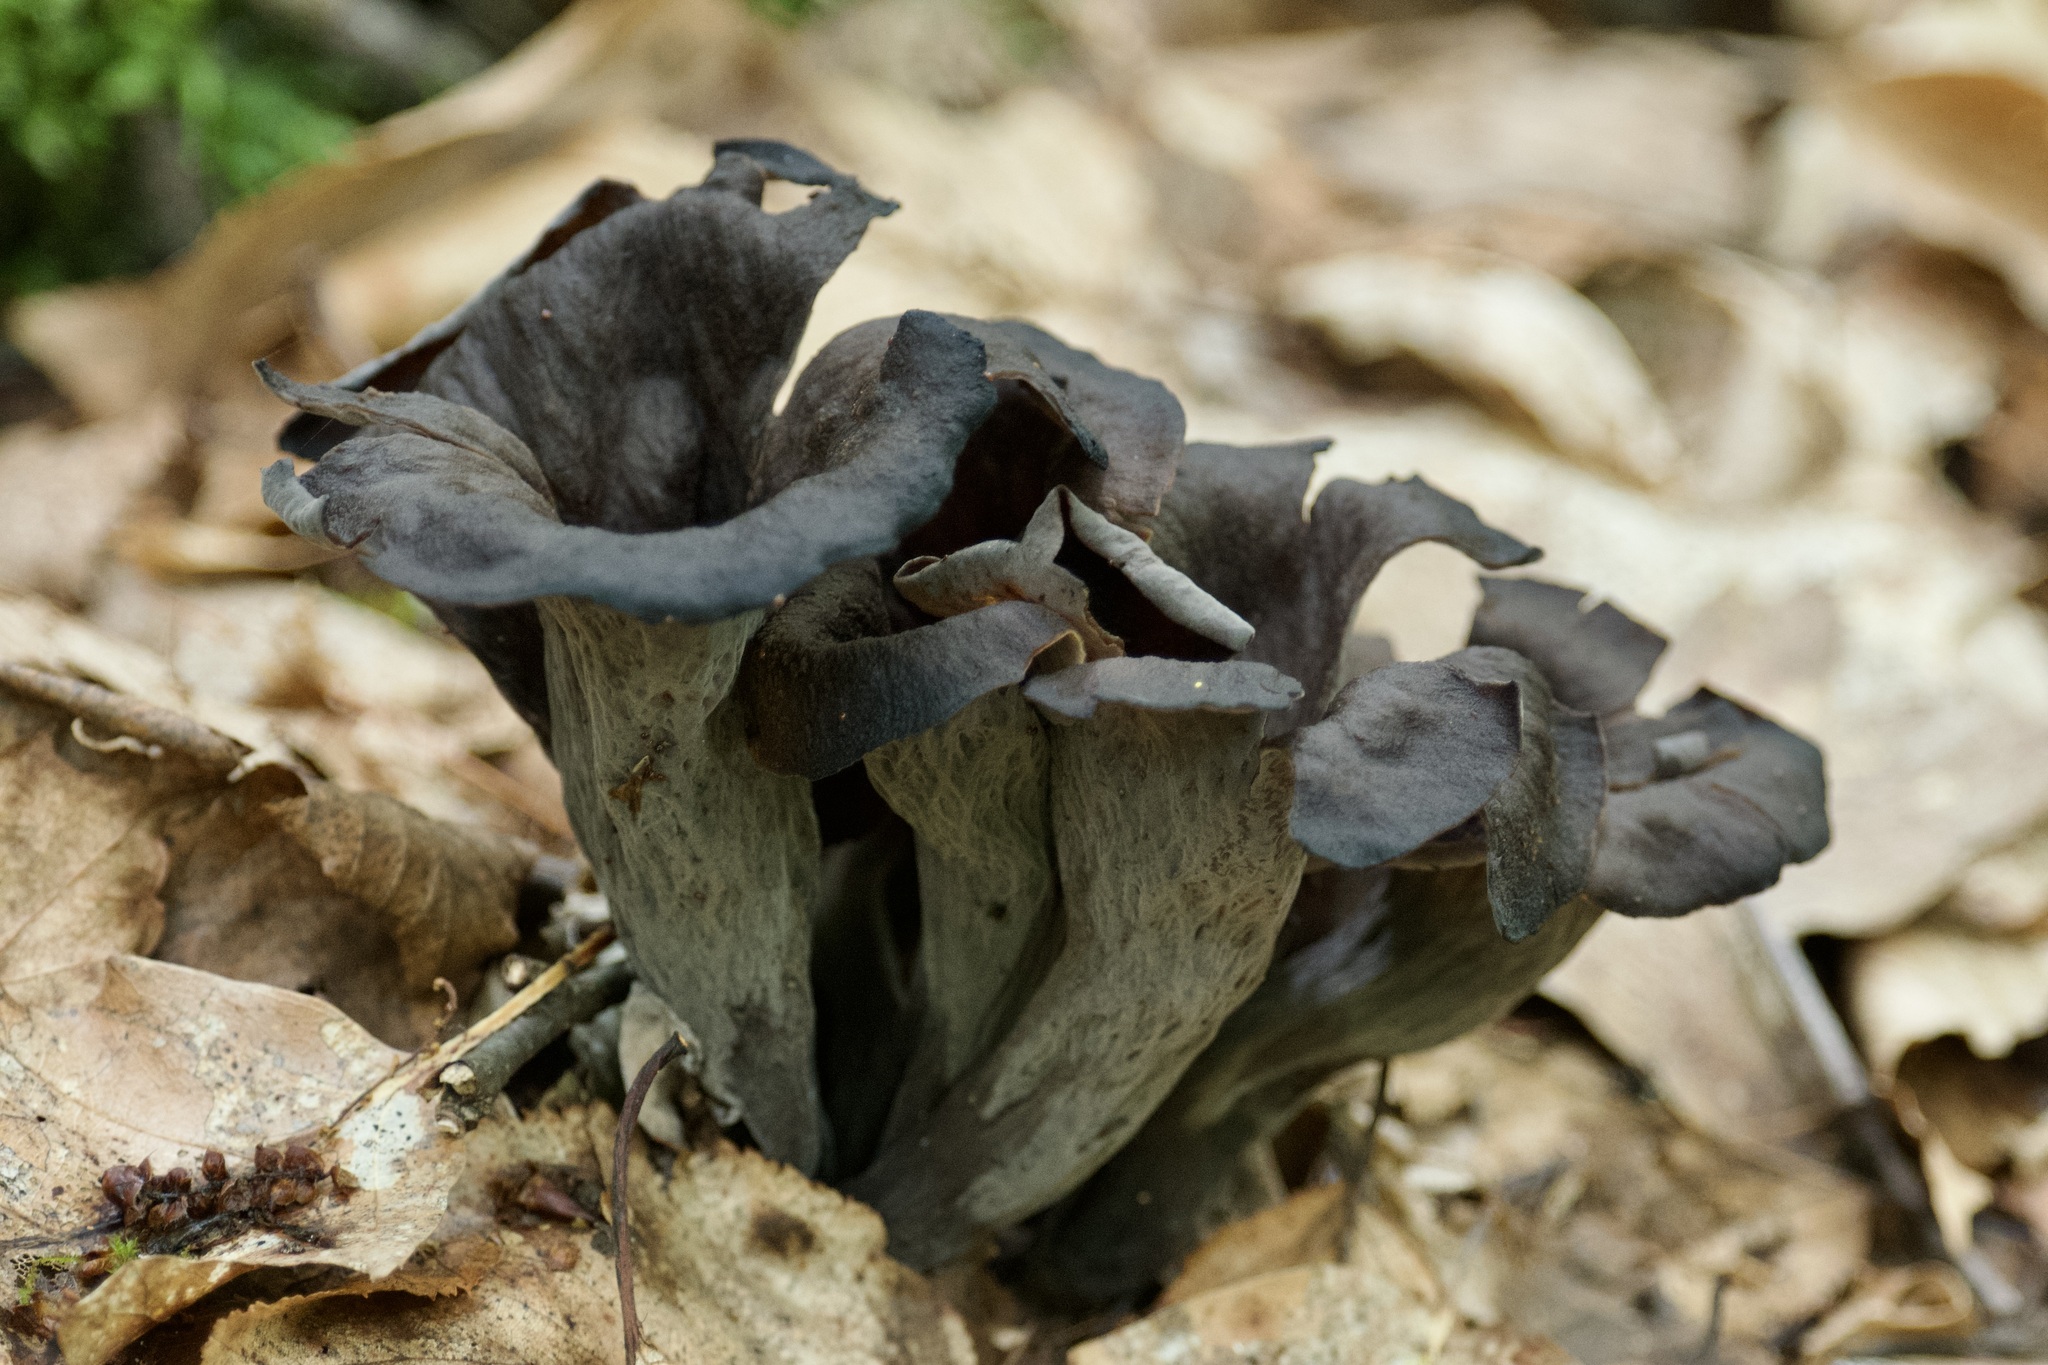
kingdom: Fungi
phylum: Basidiomycota
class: Agaricomycetes
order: Cantharellales
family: Hydnaceae
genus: Craterellus
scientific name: Craterellus cornucopioides
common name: Horn of plenty
